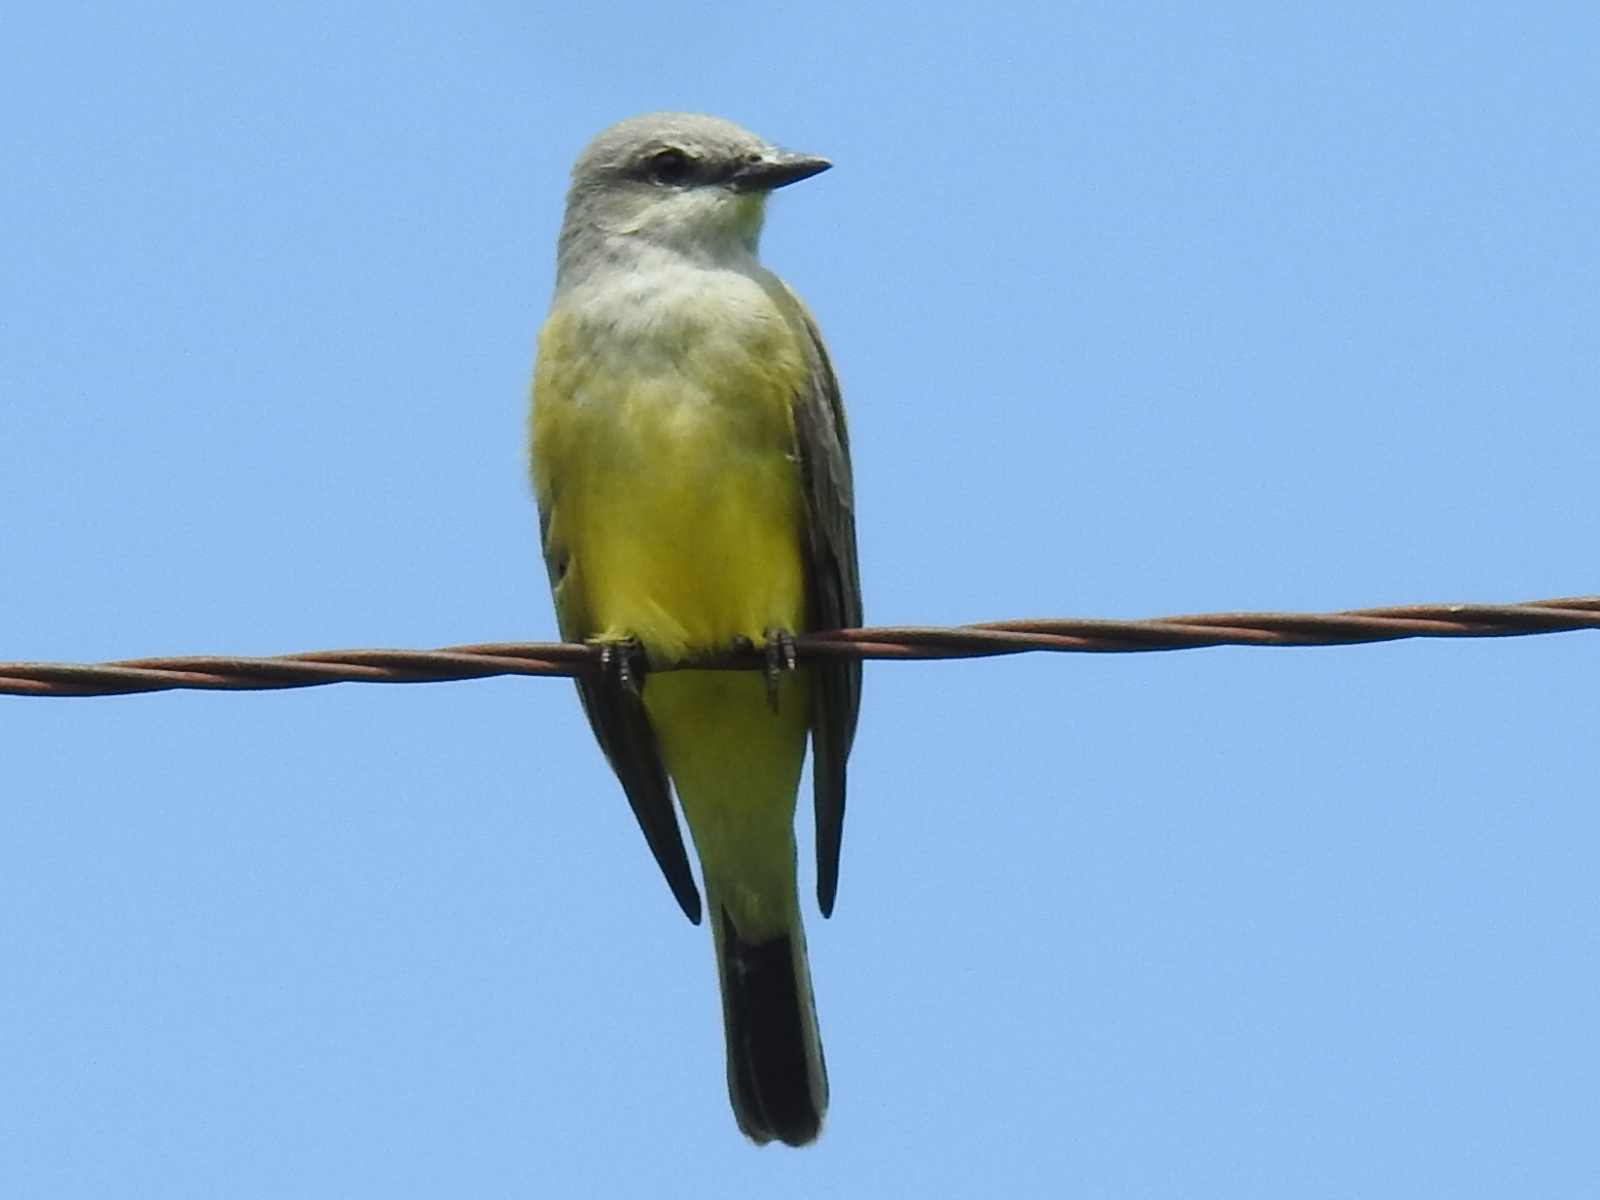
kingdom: Animalia
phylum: Chordata
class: Aves
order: Passeriformes
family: Tyrannidae
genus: Tyrannus
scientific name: Tyrannus verticalis
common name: Western kingbird
